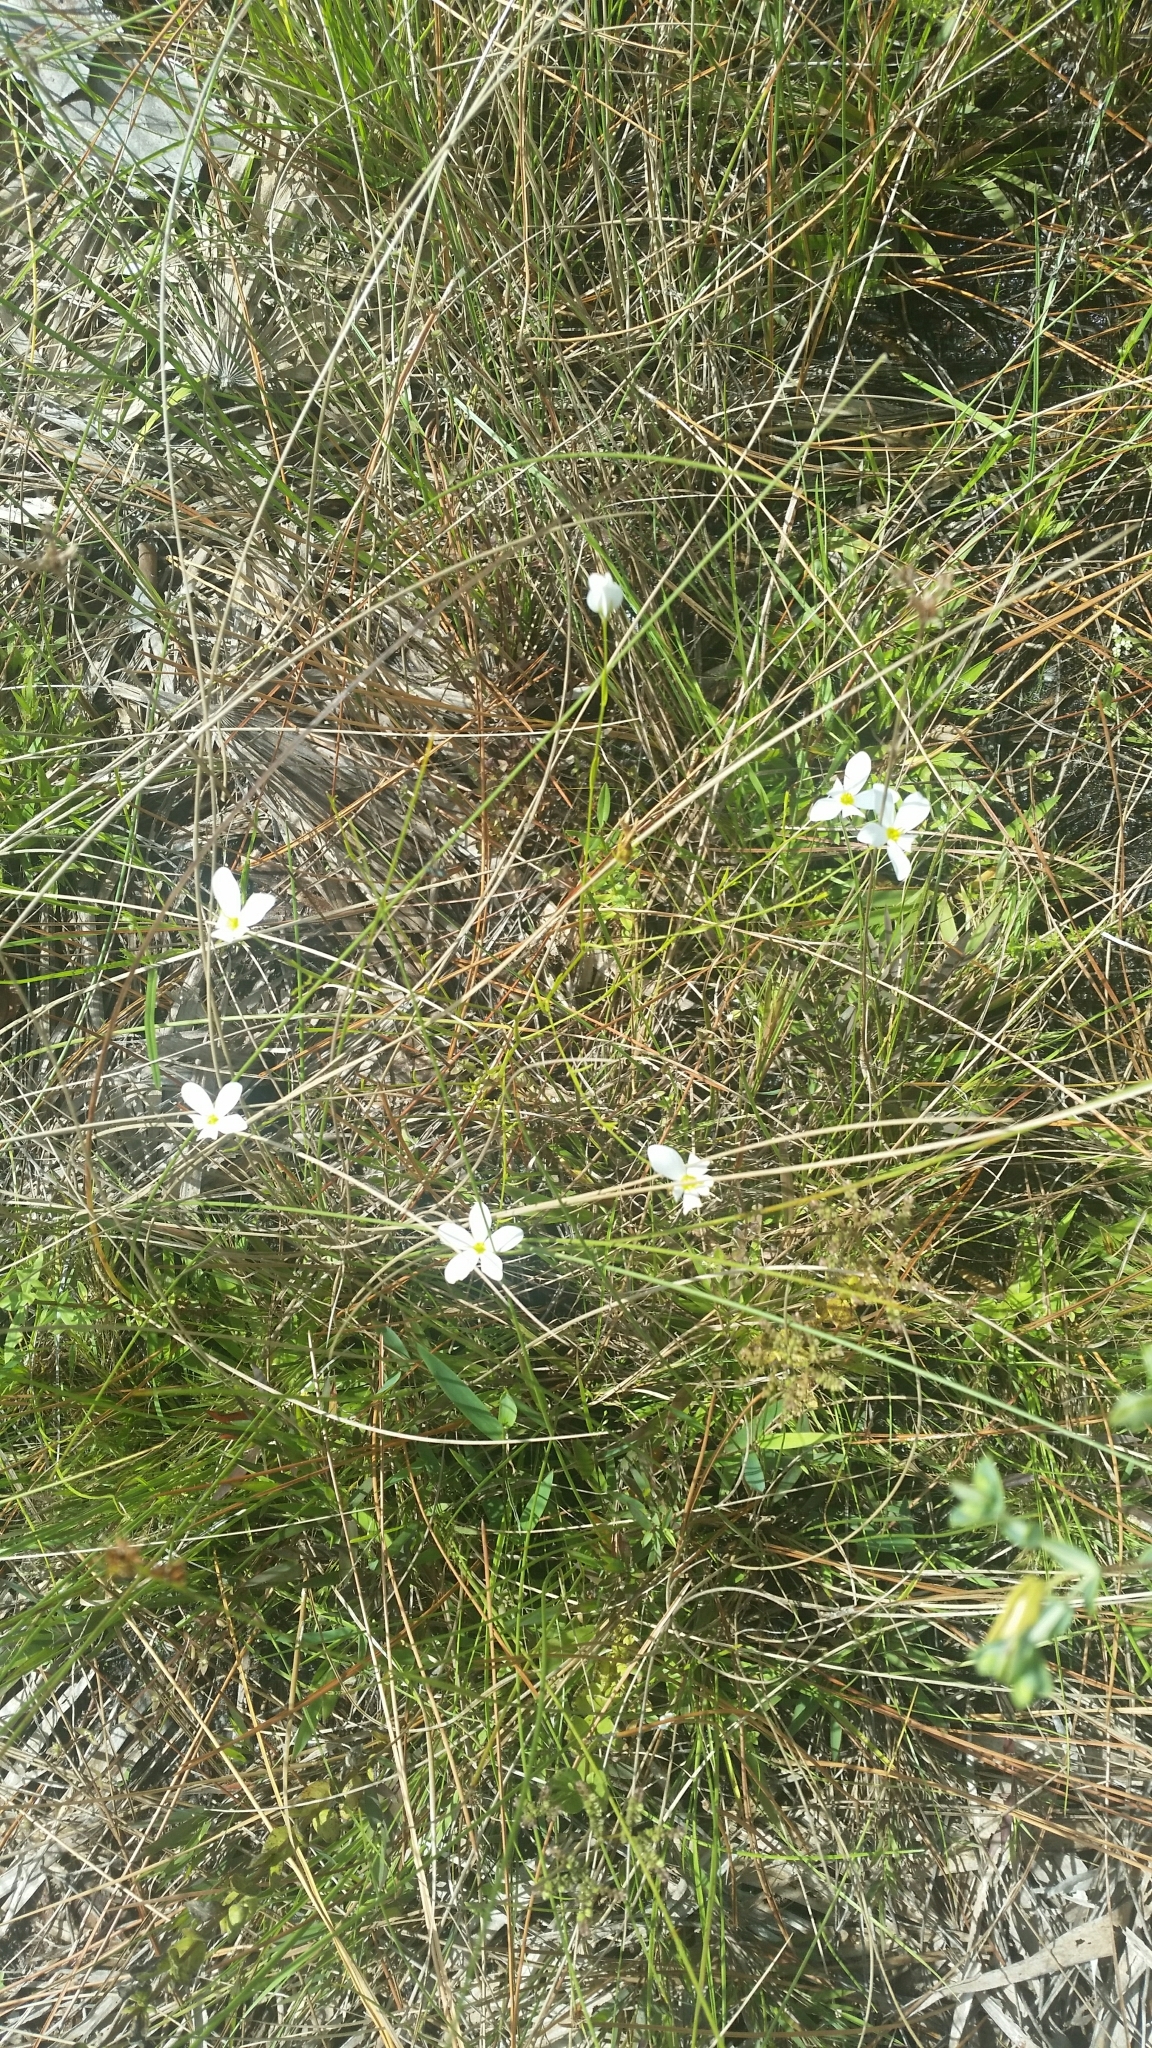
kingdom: Plantae
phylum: Tracheophyta
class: Magnoliopsida
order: Gentianales
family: Gentianaceae
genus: Sabatia
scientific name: Sabatia brevifolia
